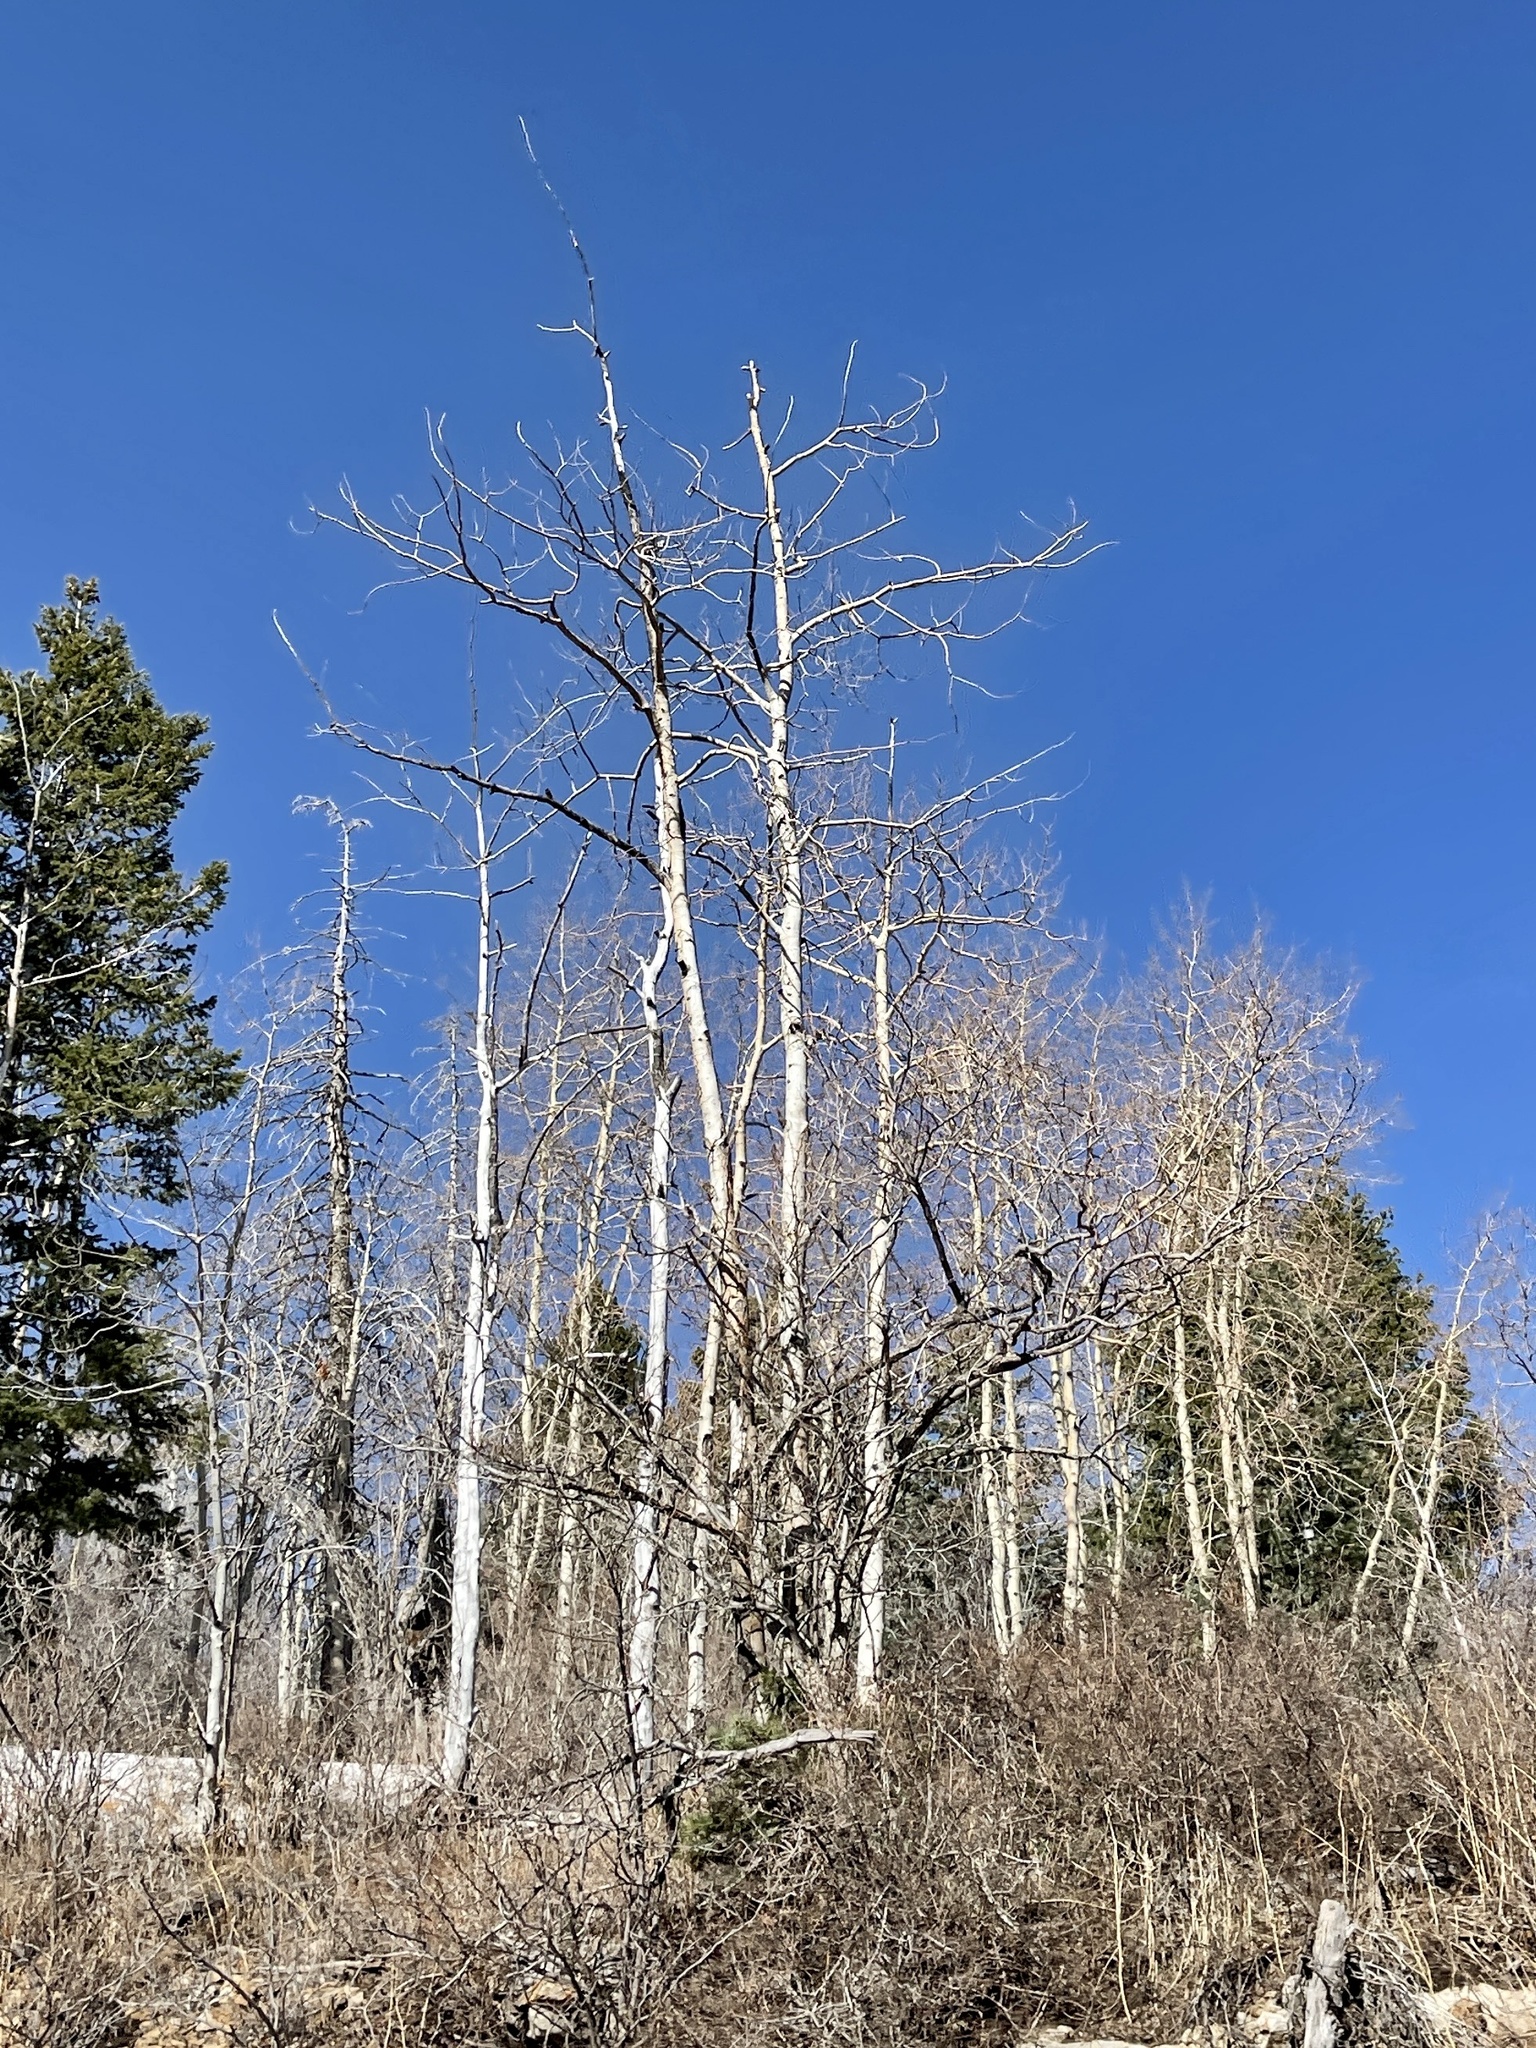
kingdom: Plantae
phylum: Tracheophyta
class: Magnoliopsida
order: Malpighiales
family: Salicaceae
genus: Populus
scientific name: Populus tremuloides
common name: Quaking aspen
